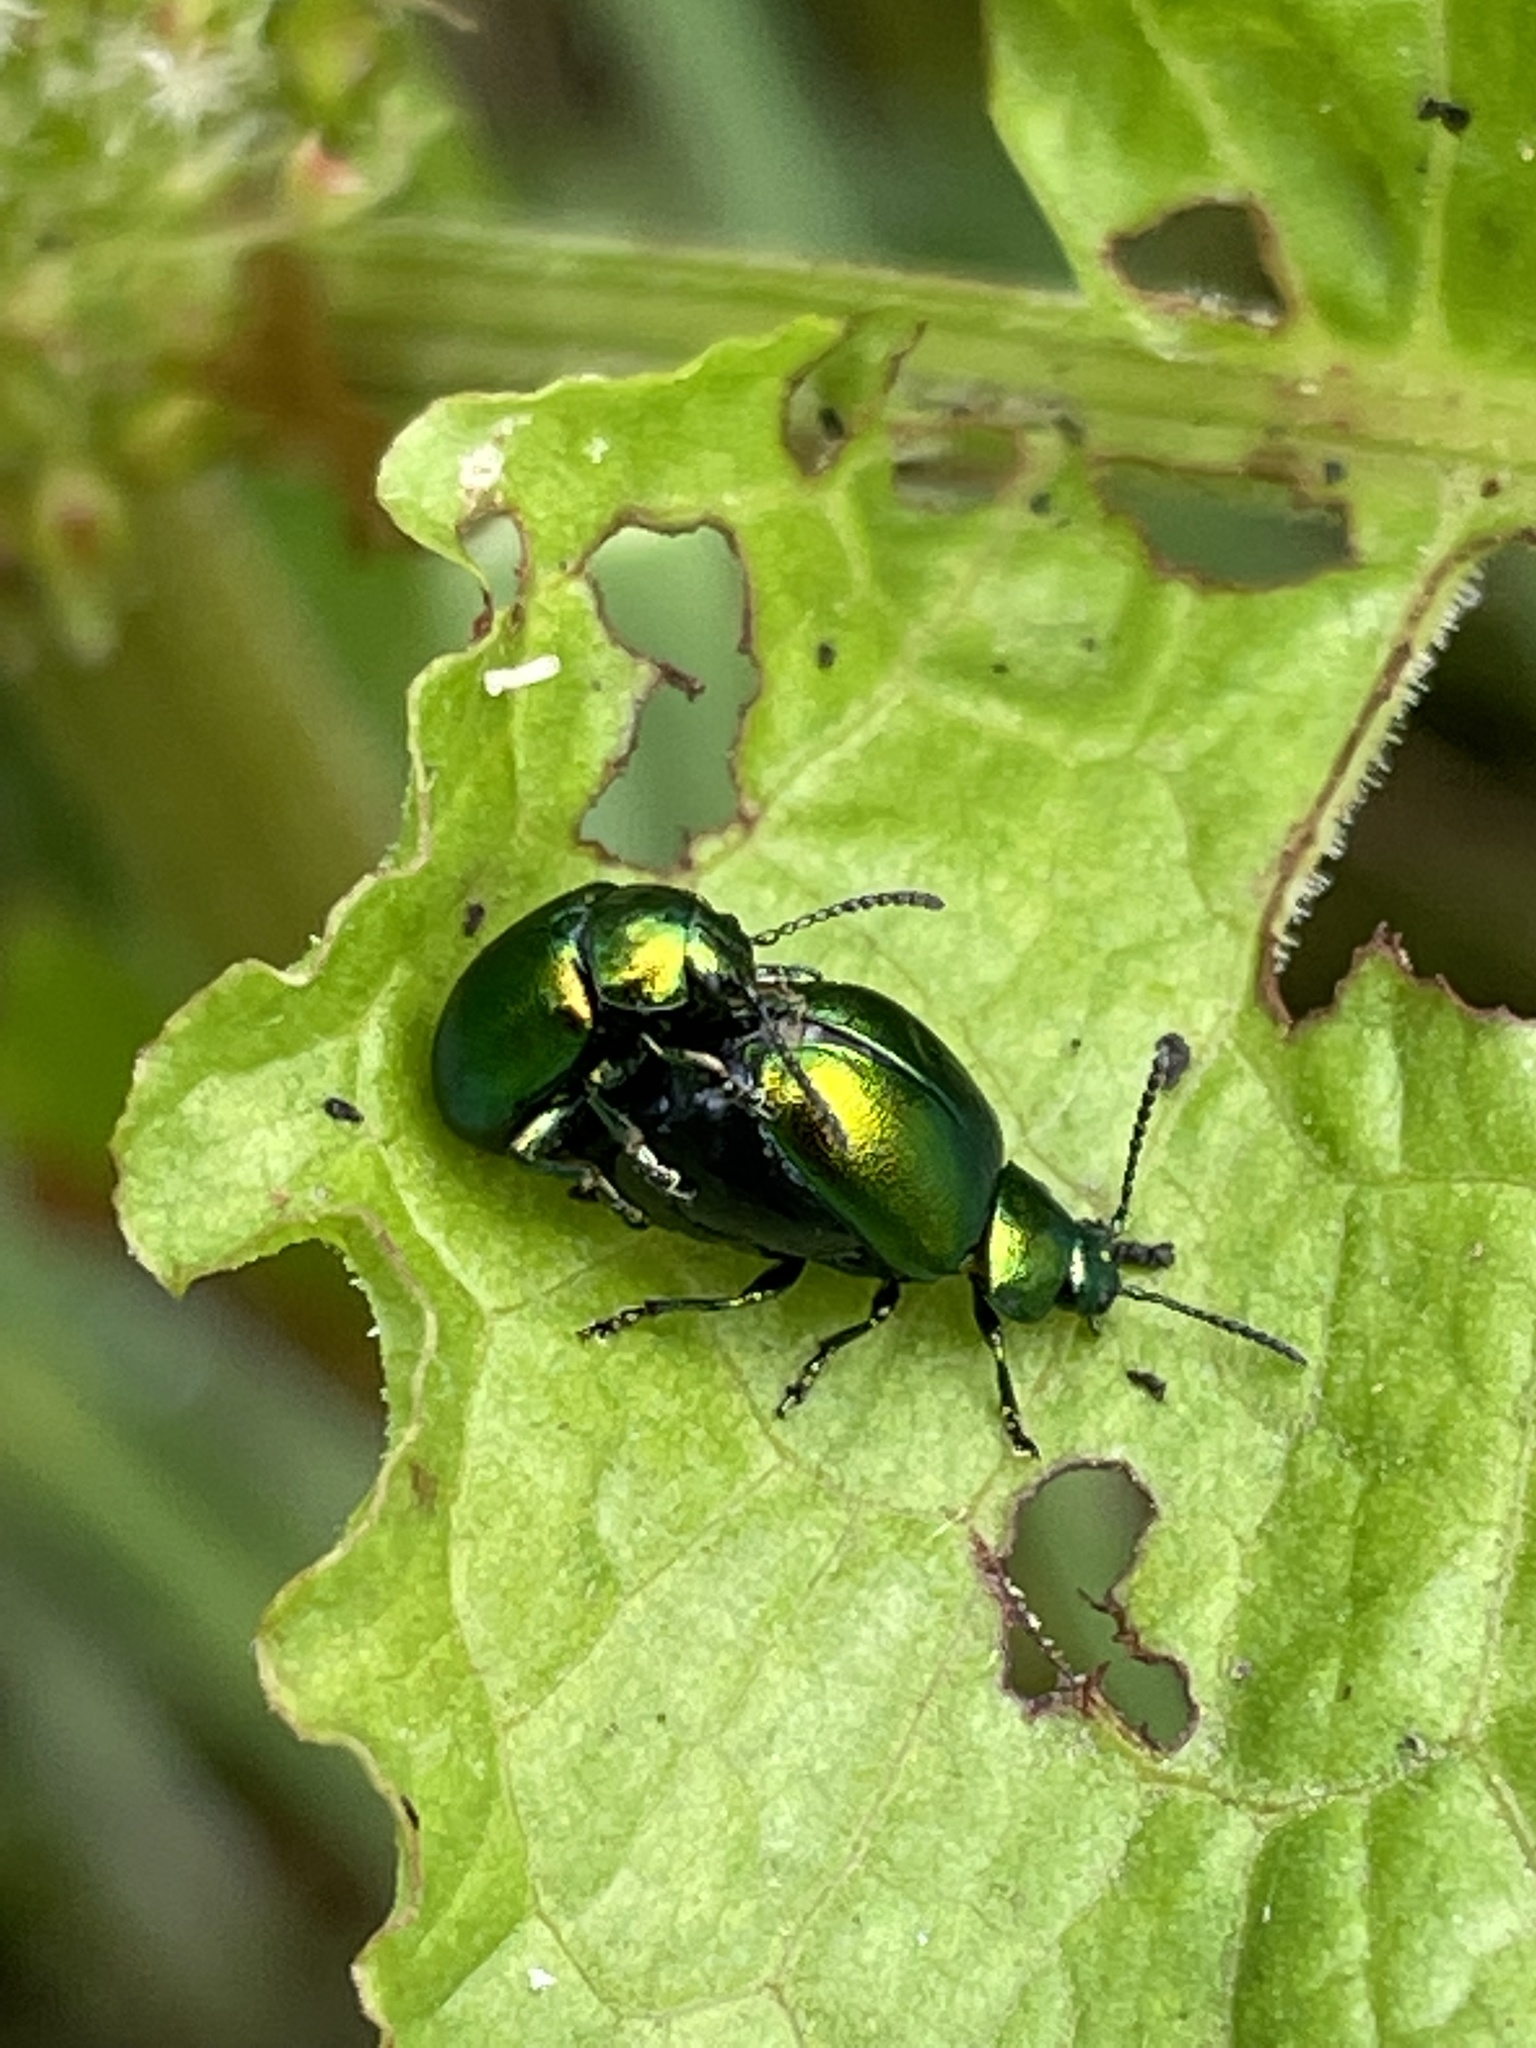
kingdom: Animalia
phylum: Arthropoda
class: Insecta
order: Coleoptera
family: Chrysomelidae
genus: Gastrophysa
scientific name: Gastrophysa viridula
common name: Green dock beetle
